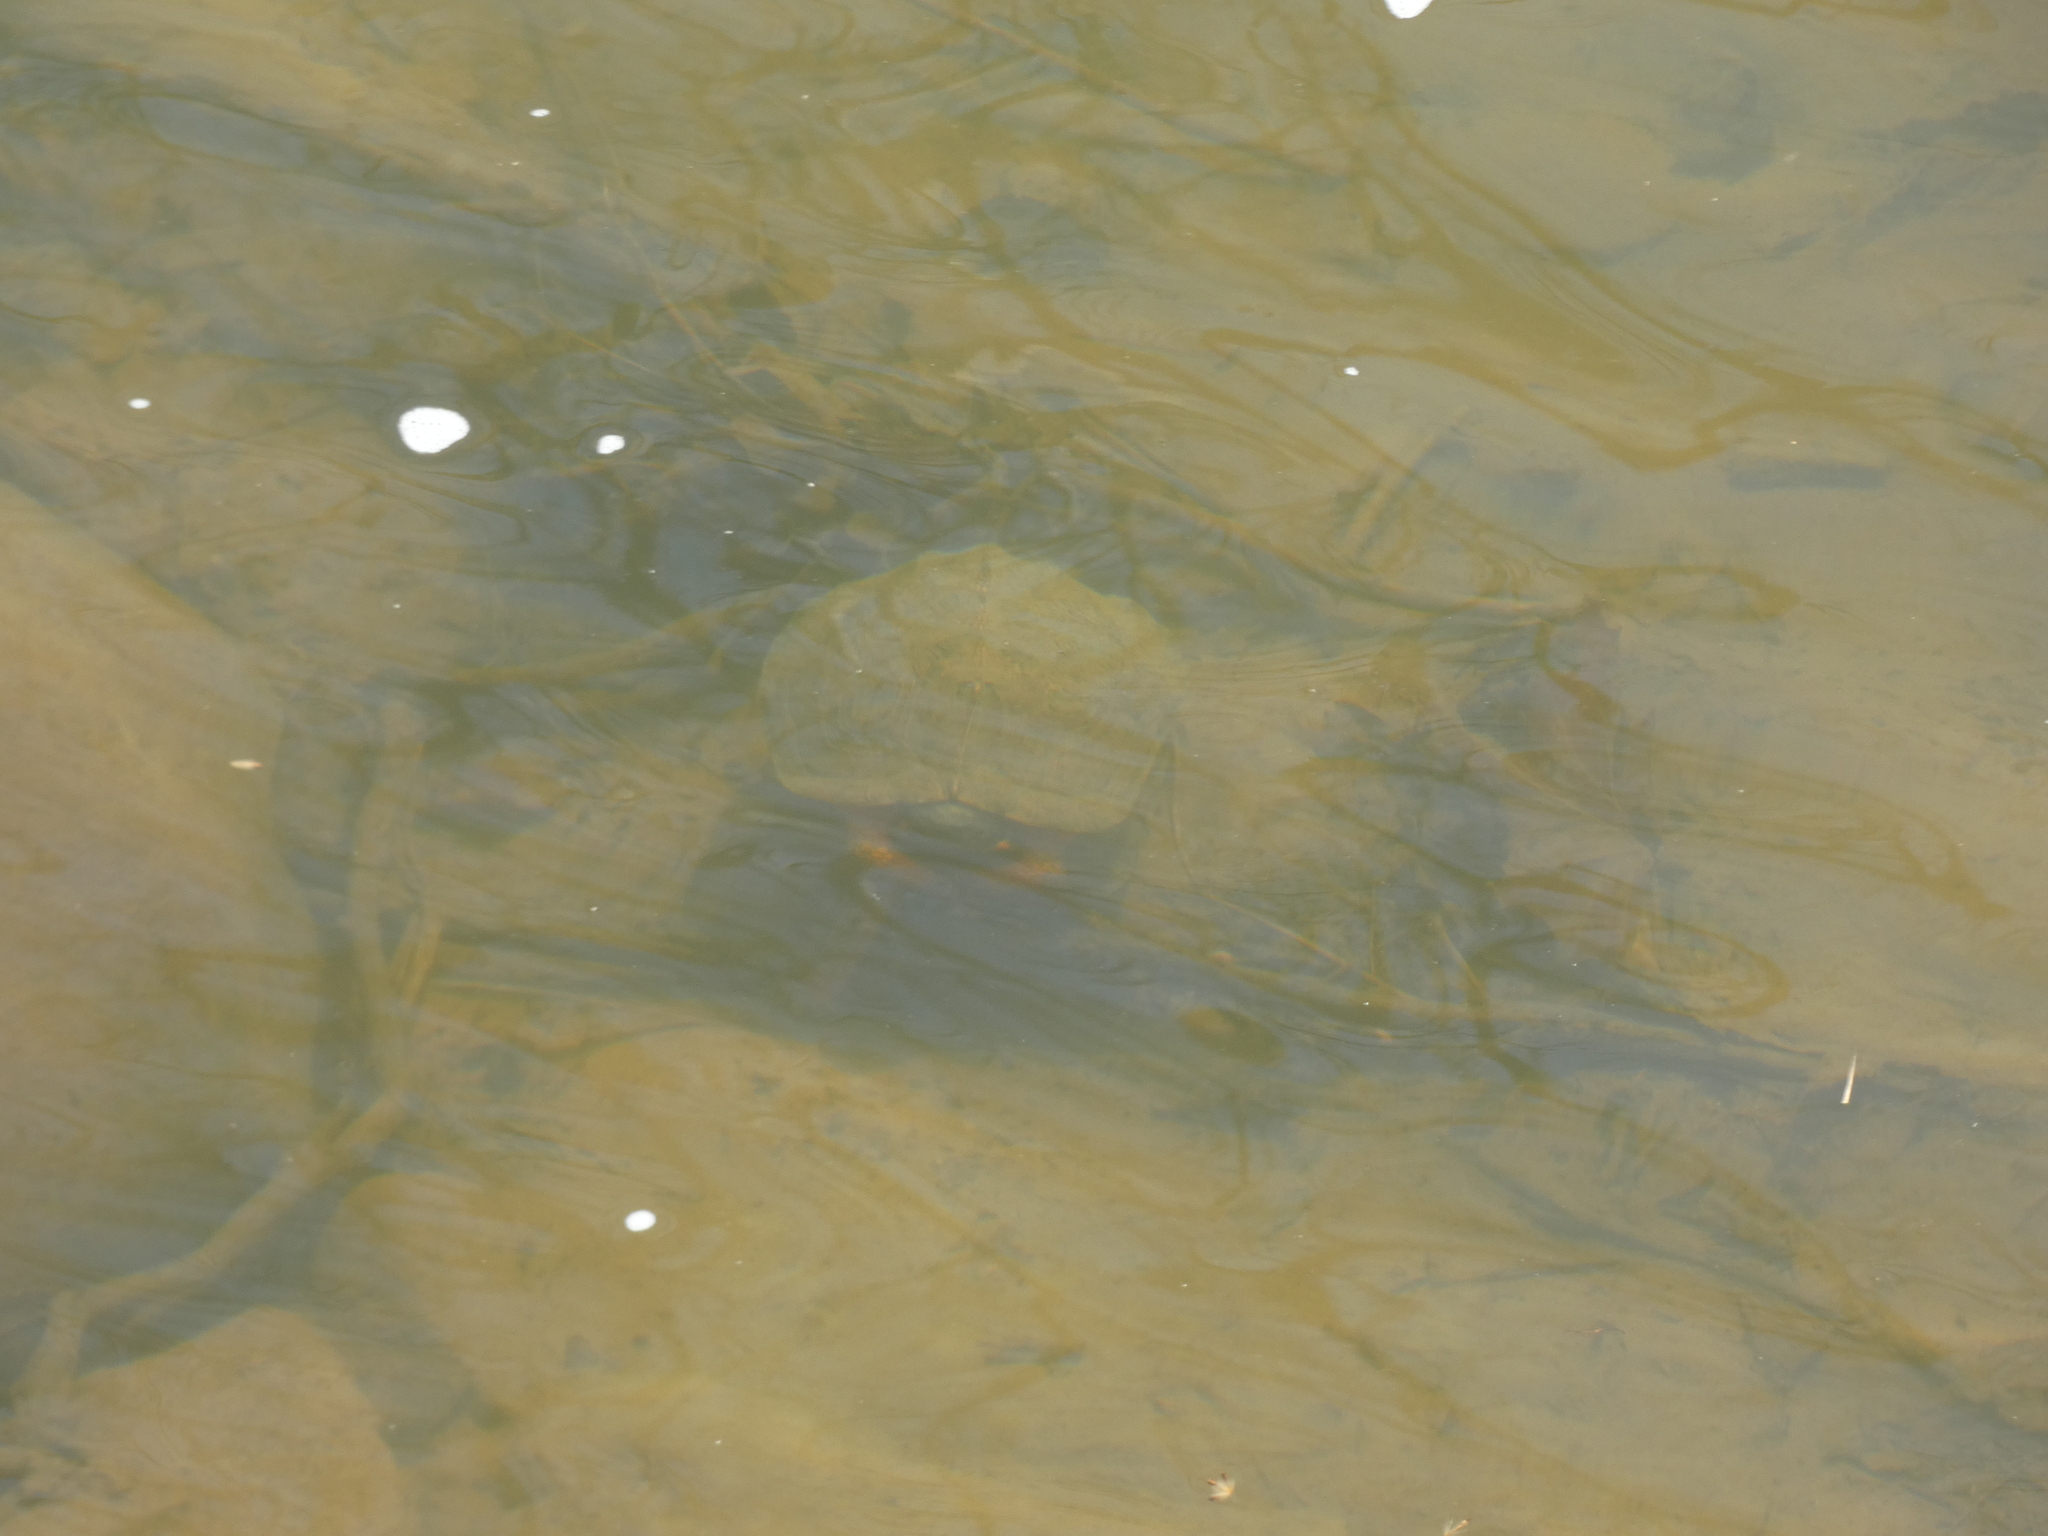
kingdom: Animalia
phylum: Chordata
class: Testudines
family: Emydidae
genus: Glyptemys
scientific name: Glyptemys insculpta
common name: Wood turtle
